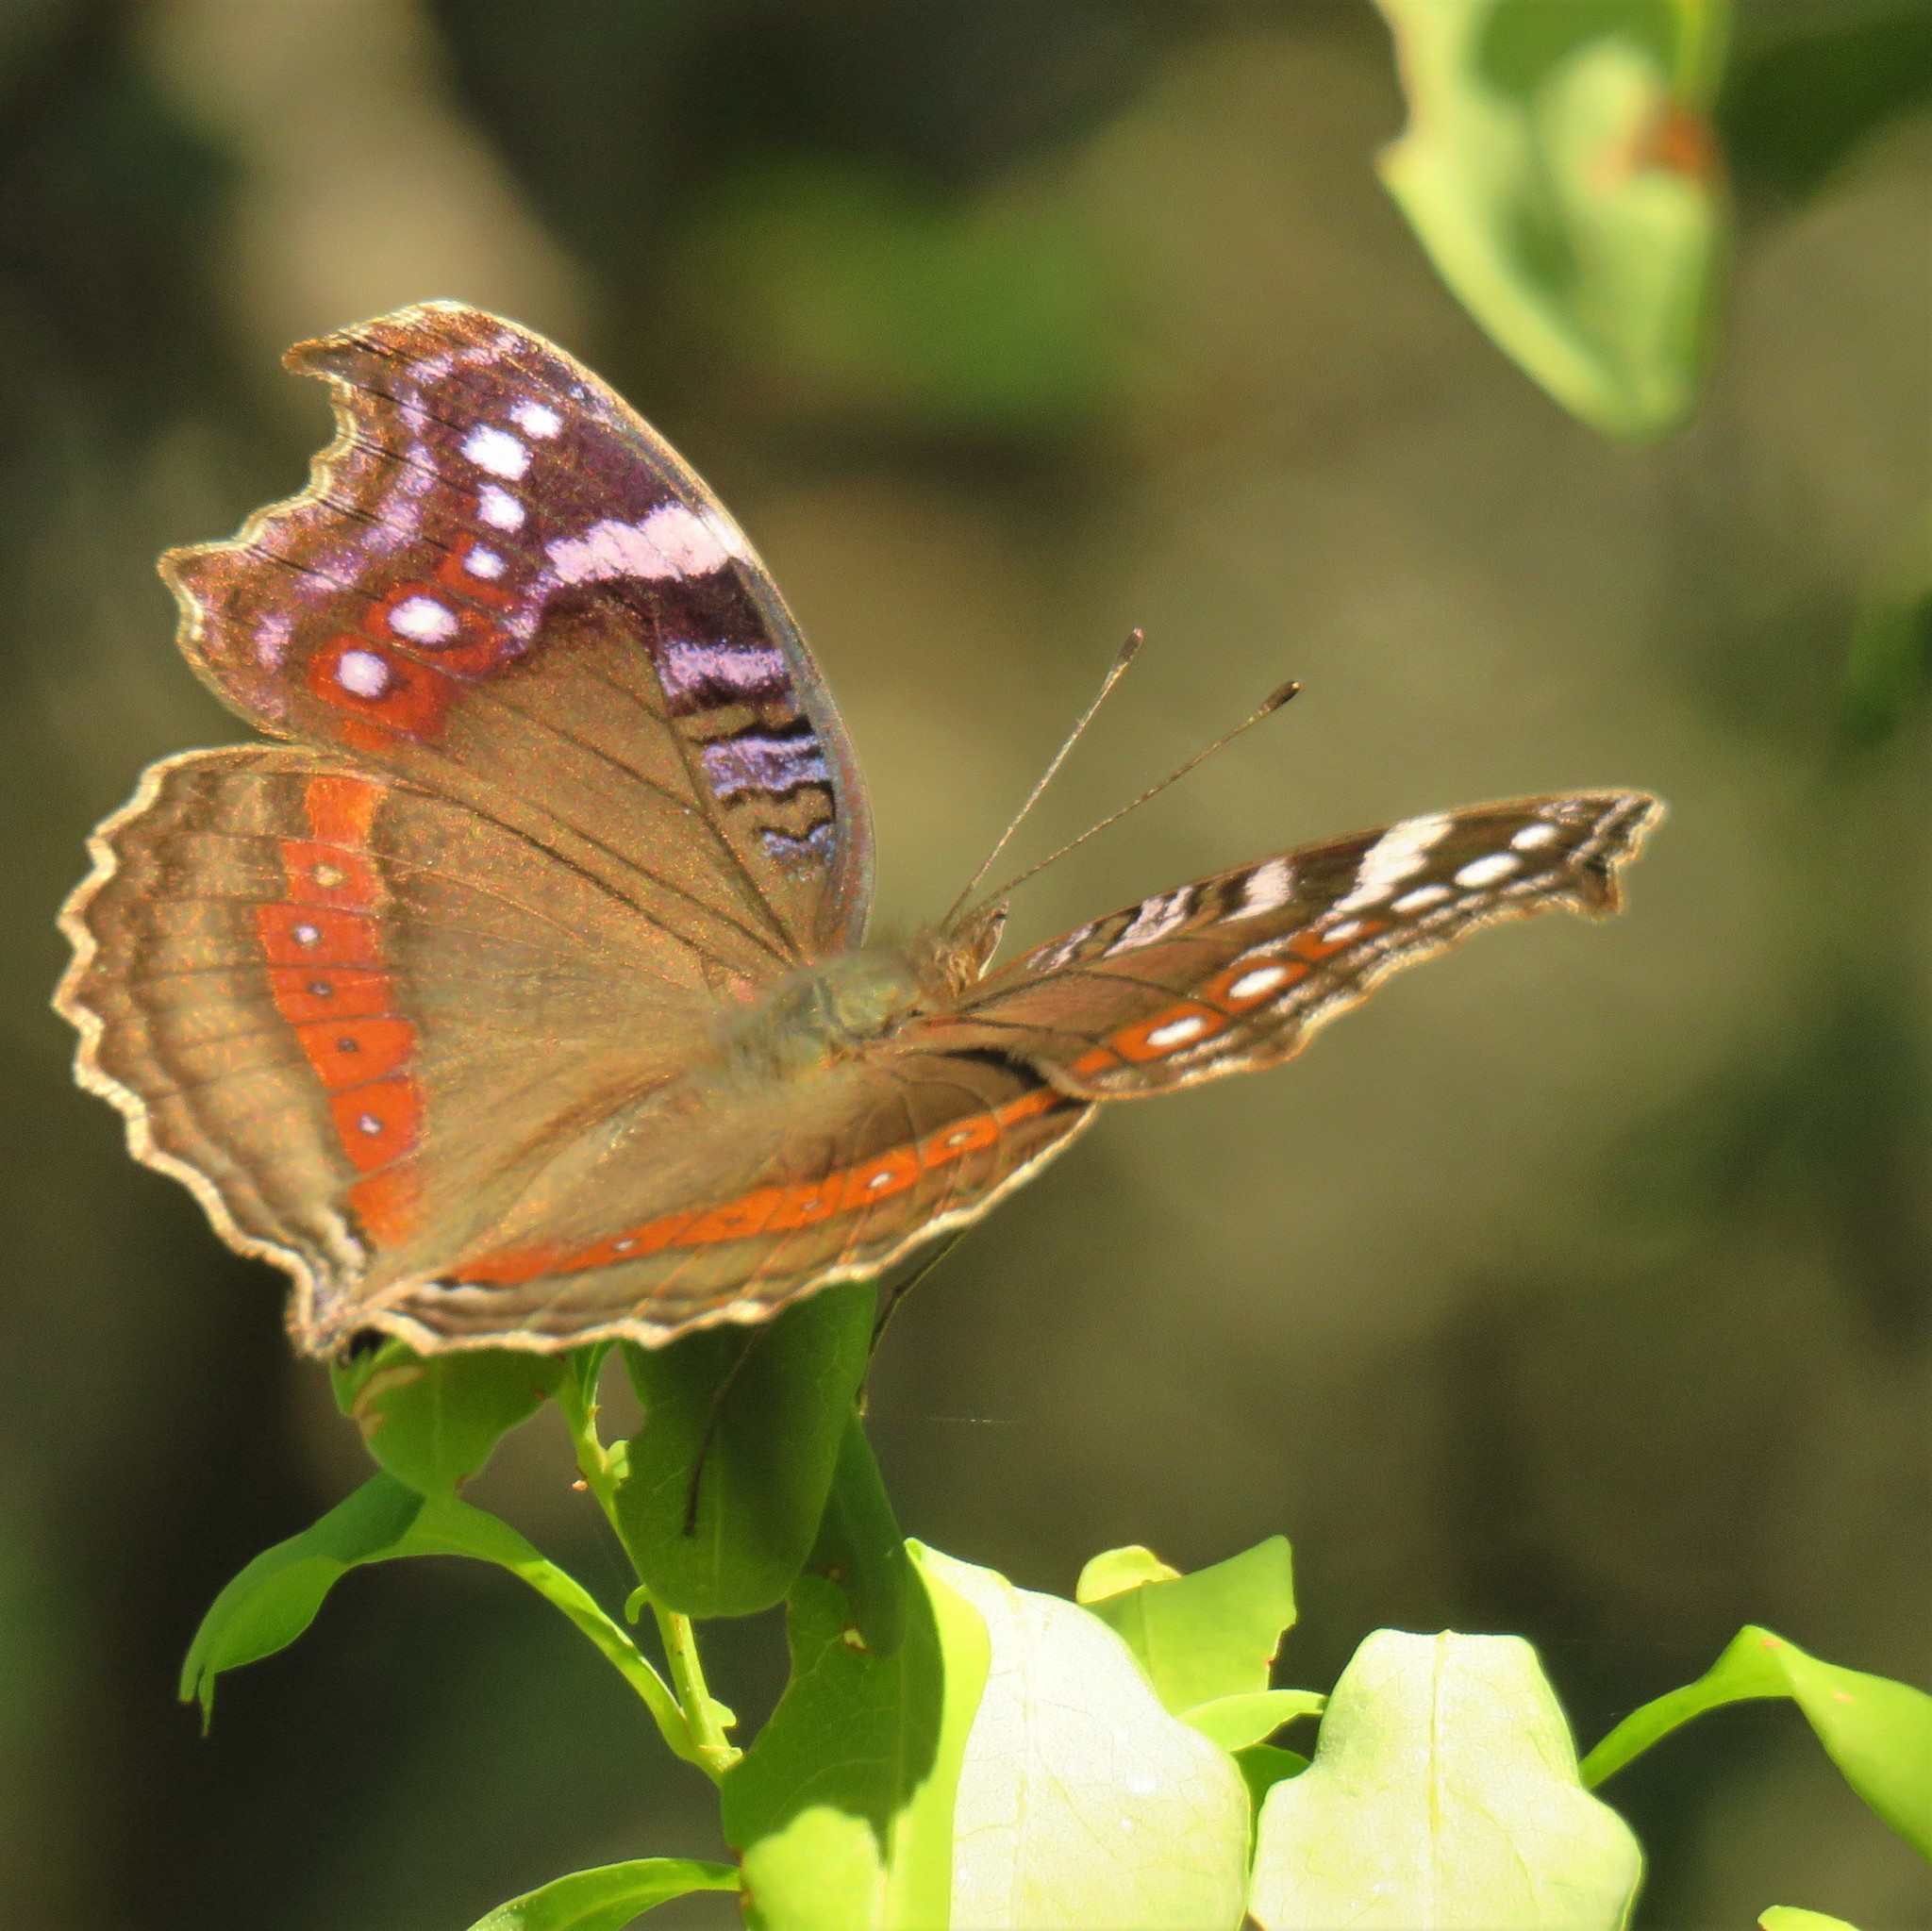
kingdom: Animalia
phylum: Arthropoda
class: Insecta
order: Lepidoptera
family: Nymphalidae
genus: Junonia
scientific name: Junonia archesia
